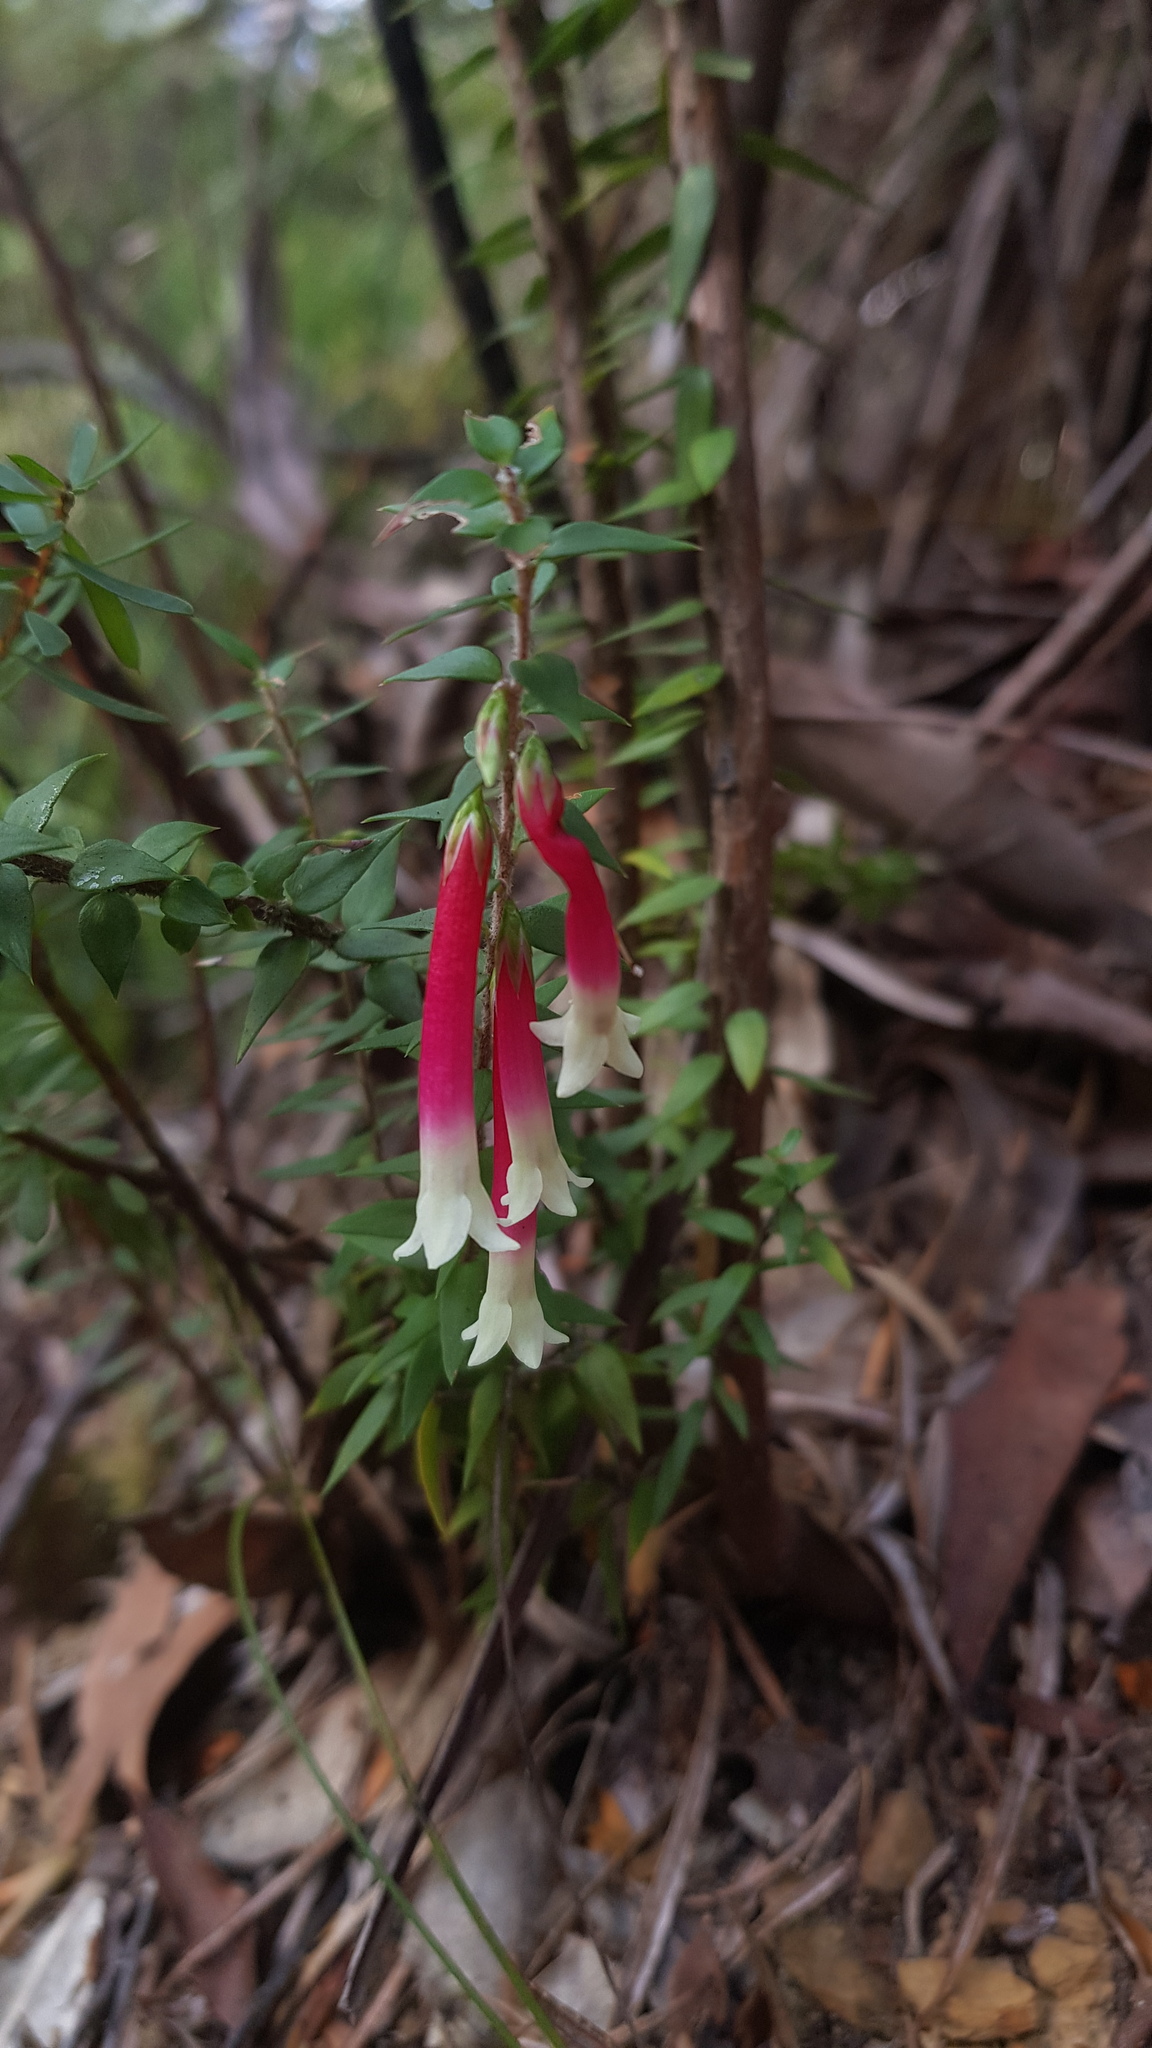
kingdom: Plantae
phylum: Tracheophyta
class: Magnoliopsida
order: Ericales
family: Ericaceae
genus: Epacris
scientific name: Epacris longiflora
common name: Fuchsia-heath
